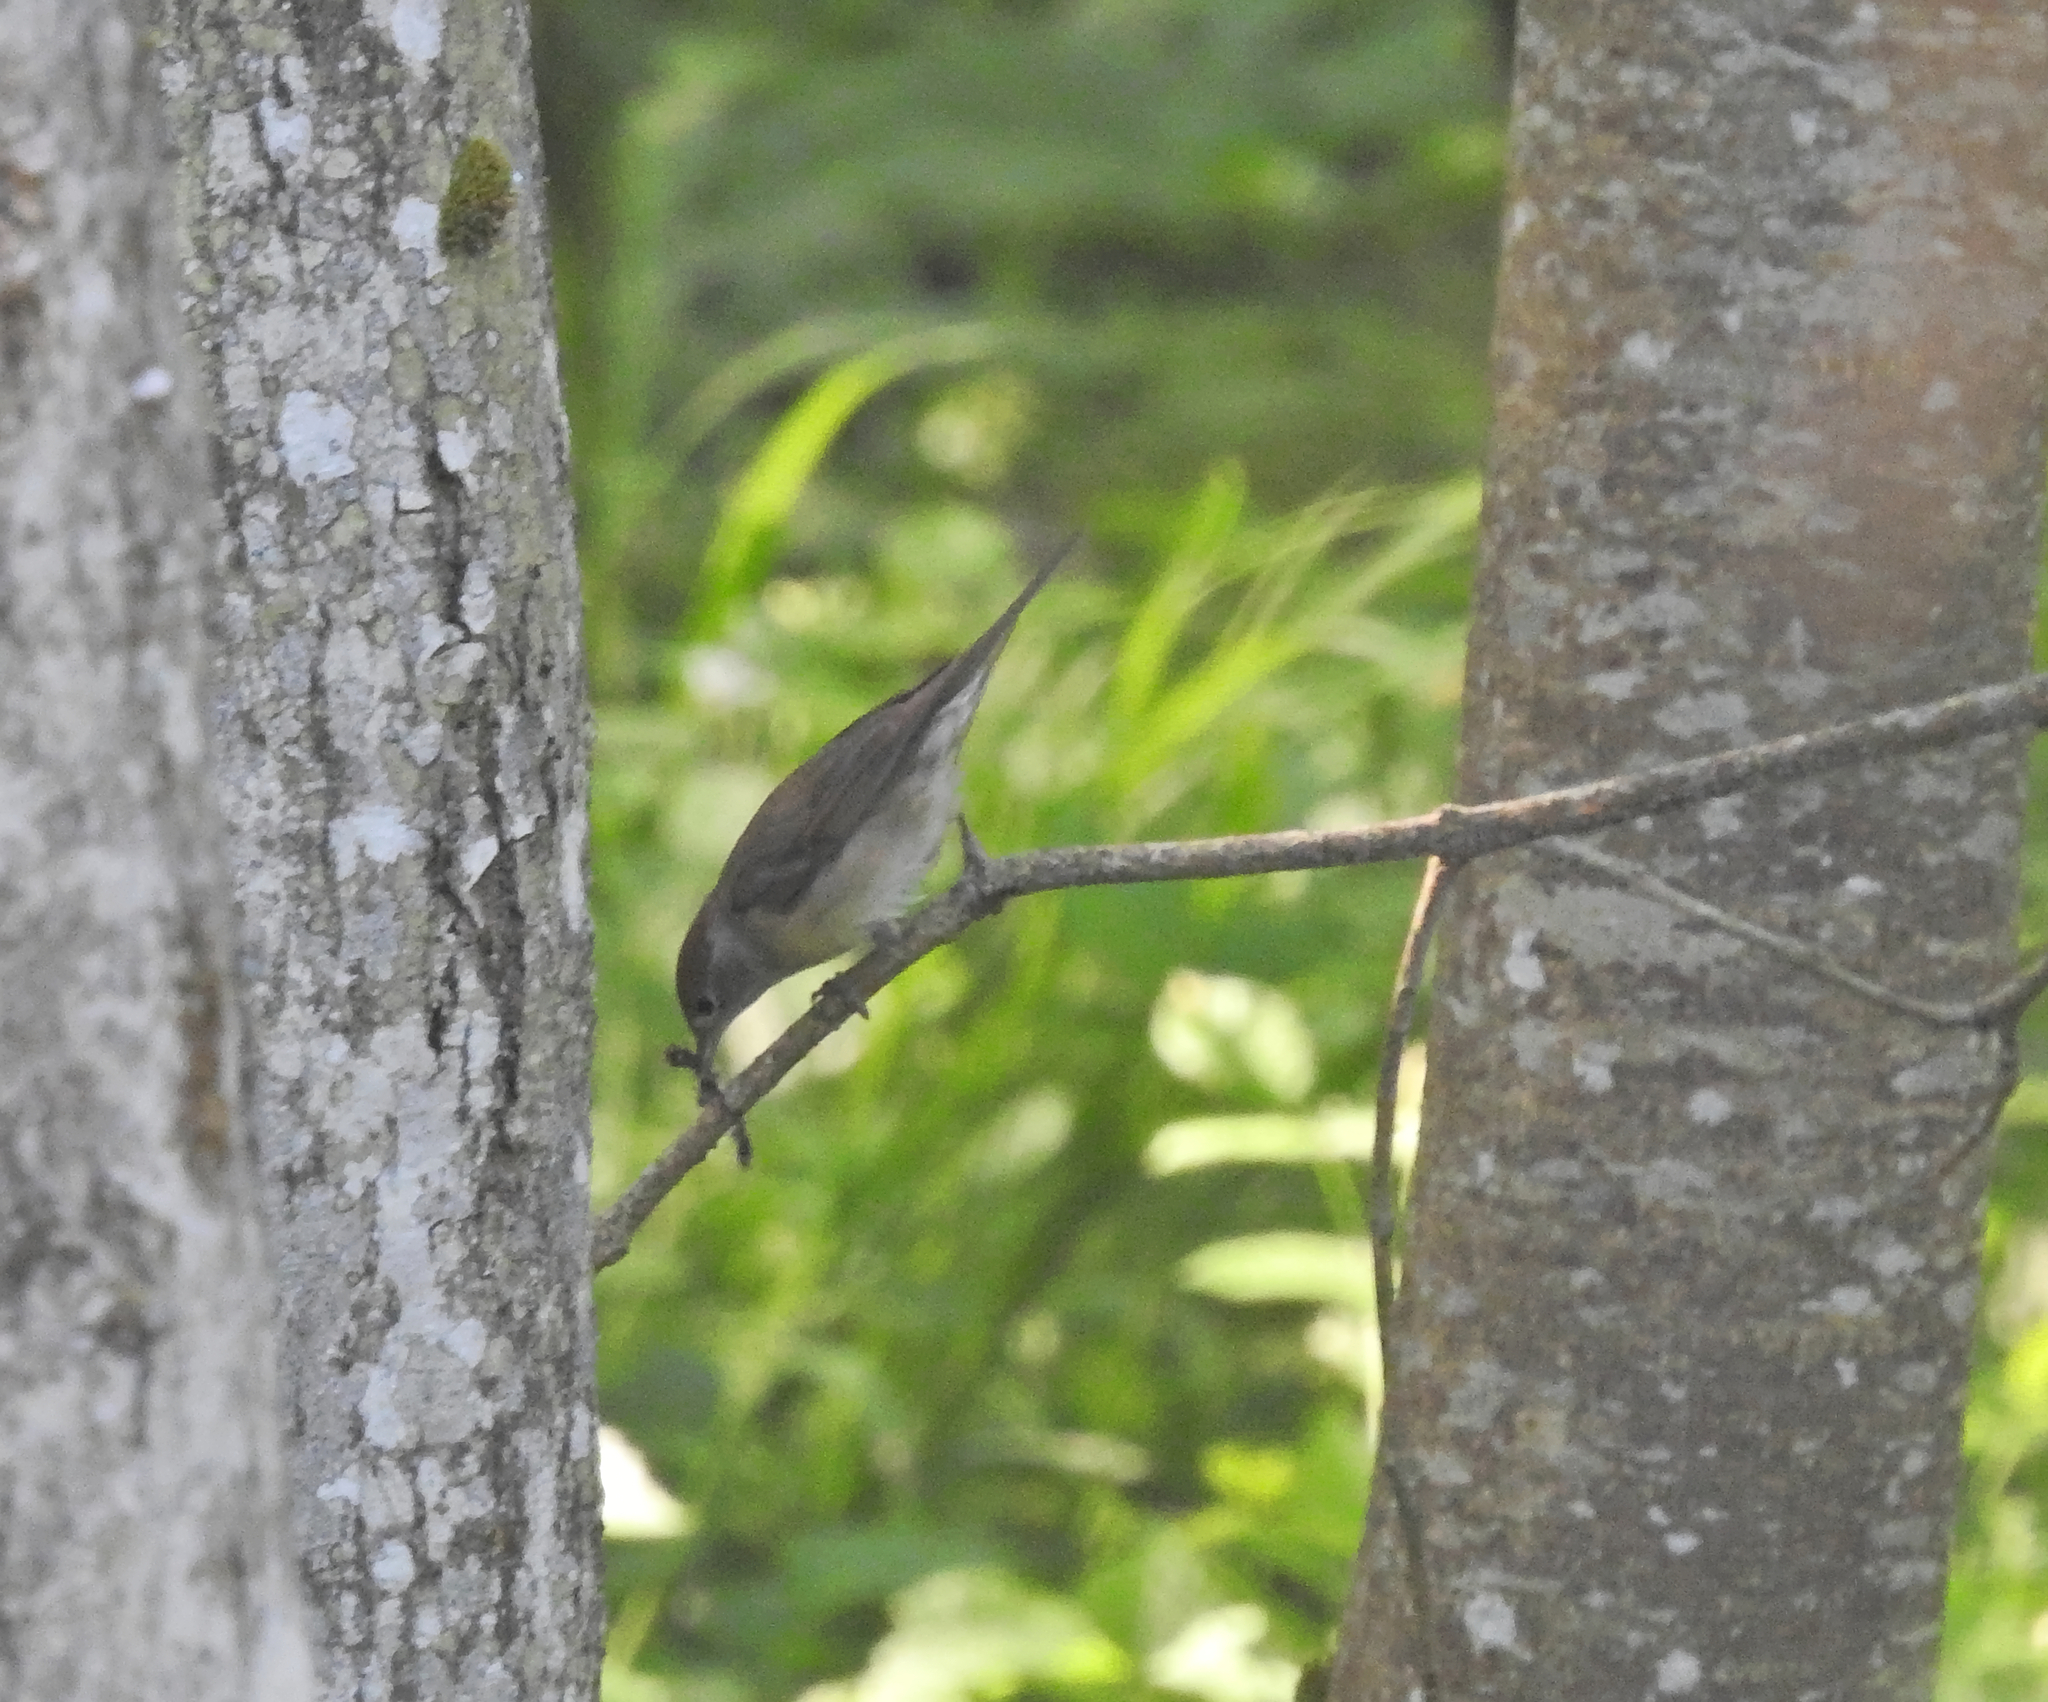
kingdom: Animalia
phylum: Chordata
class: Aves
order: Passeriformes
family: Sylviidae
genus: Sylvia
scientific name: Sylvia atricapilla
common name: Eurasian blackcap
